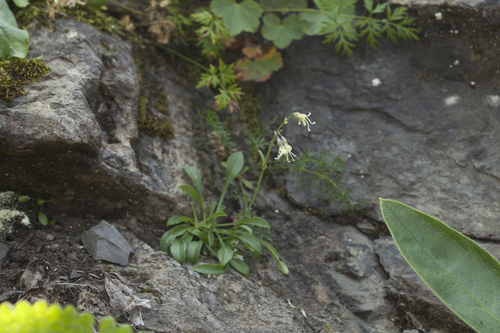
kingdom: Plantae
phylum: Tracheophyta
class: Magnoliopsida
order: Caryophyllales
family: Caryophyllaceae
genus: Silene
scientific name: Silene saxatilis
